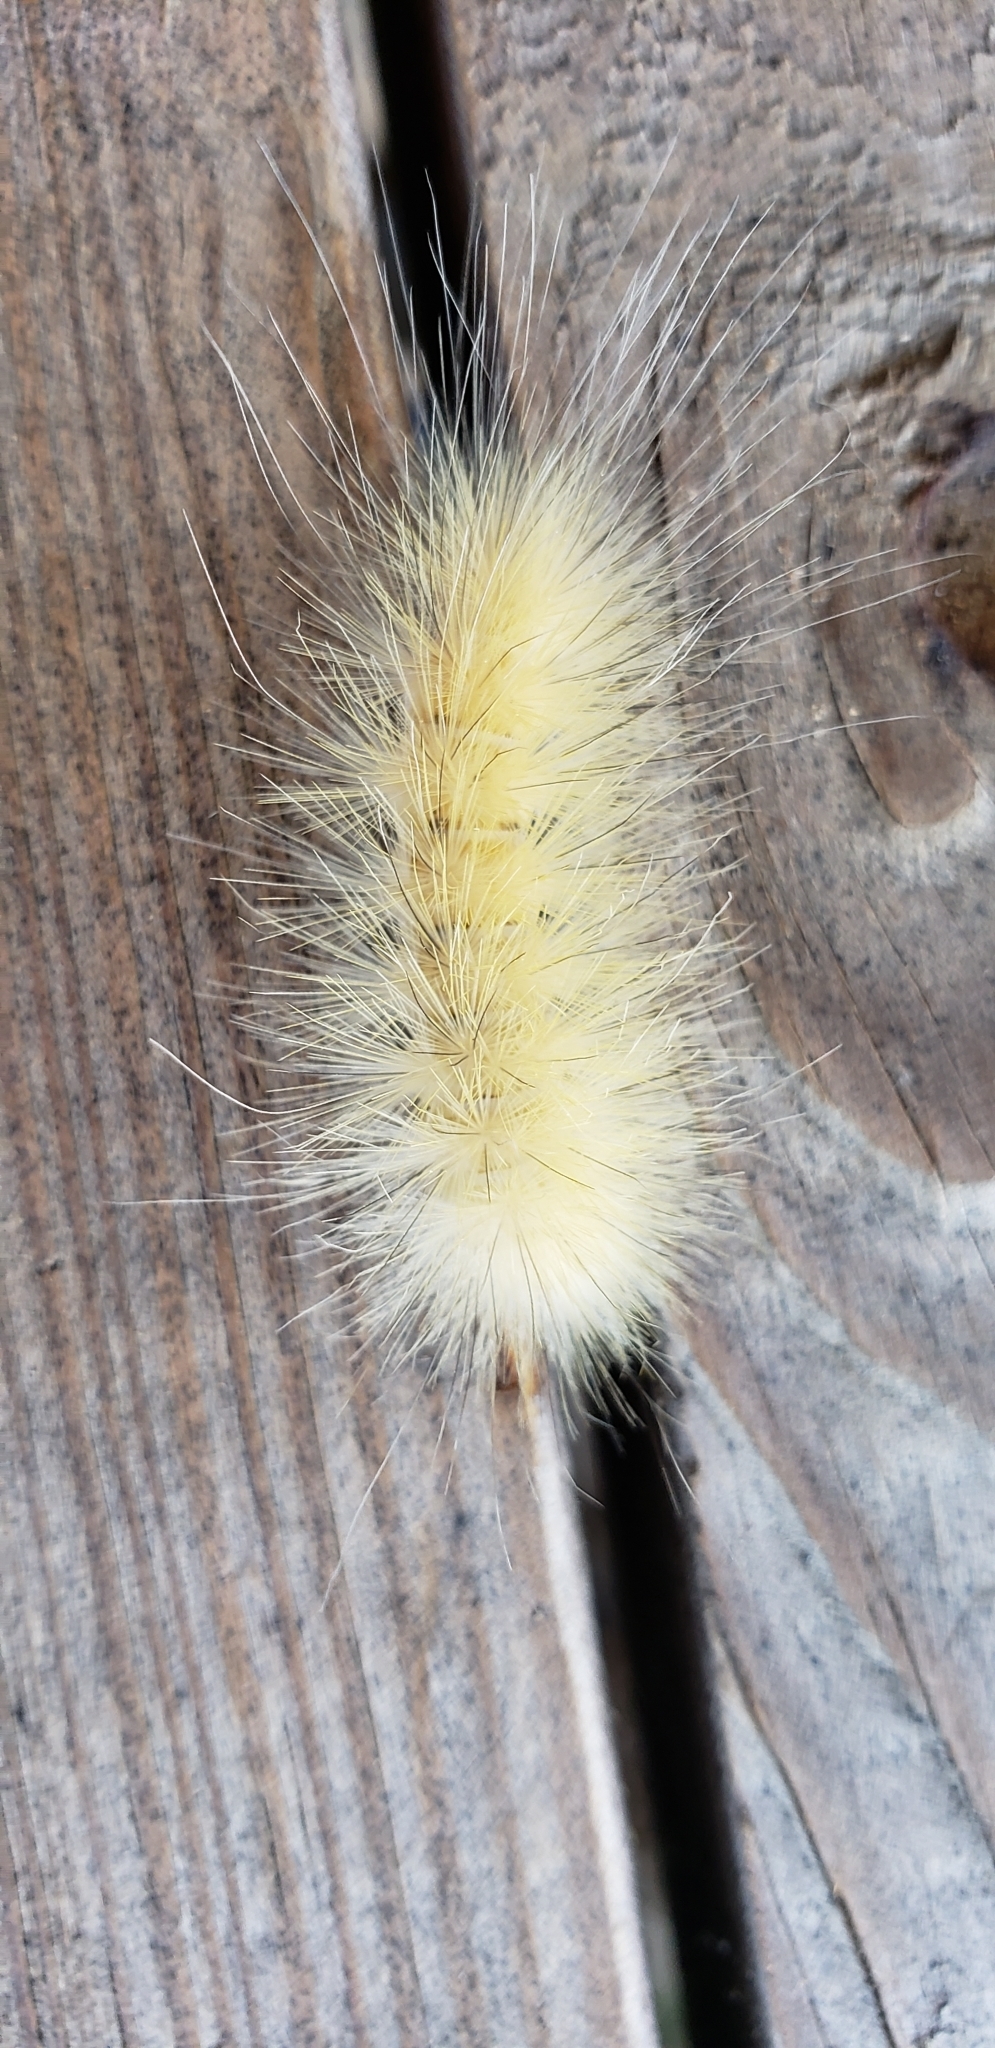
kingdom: Animalia
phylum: Arthropoda
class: Insecta
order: Lepidoptera
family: Erebidae
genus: Spilosoma
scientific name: Spilosoma virginica
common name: Virginia tiger moth
